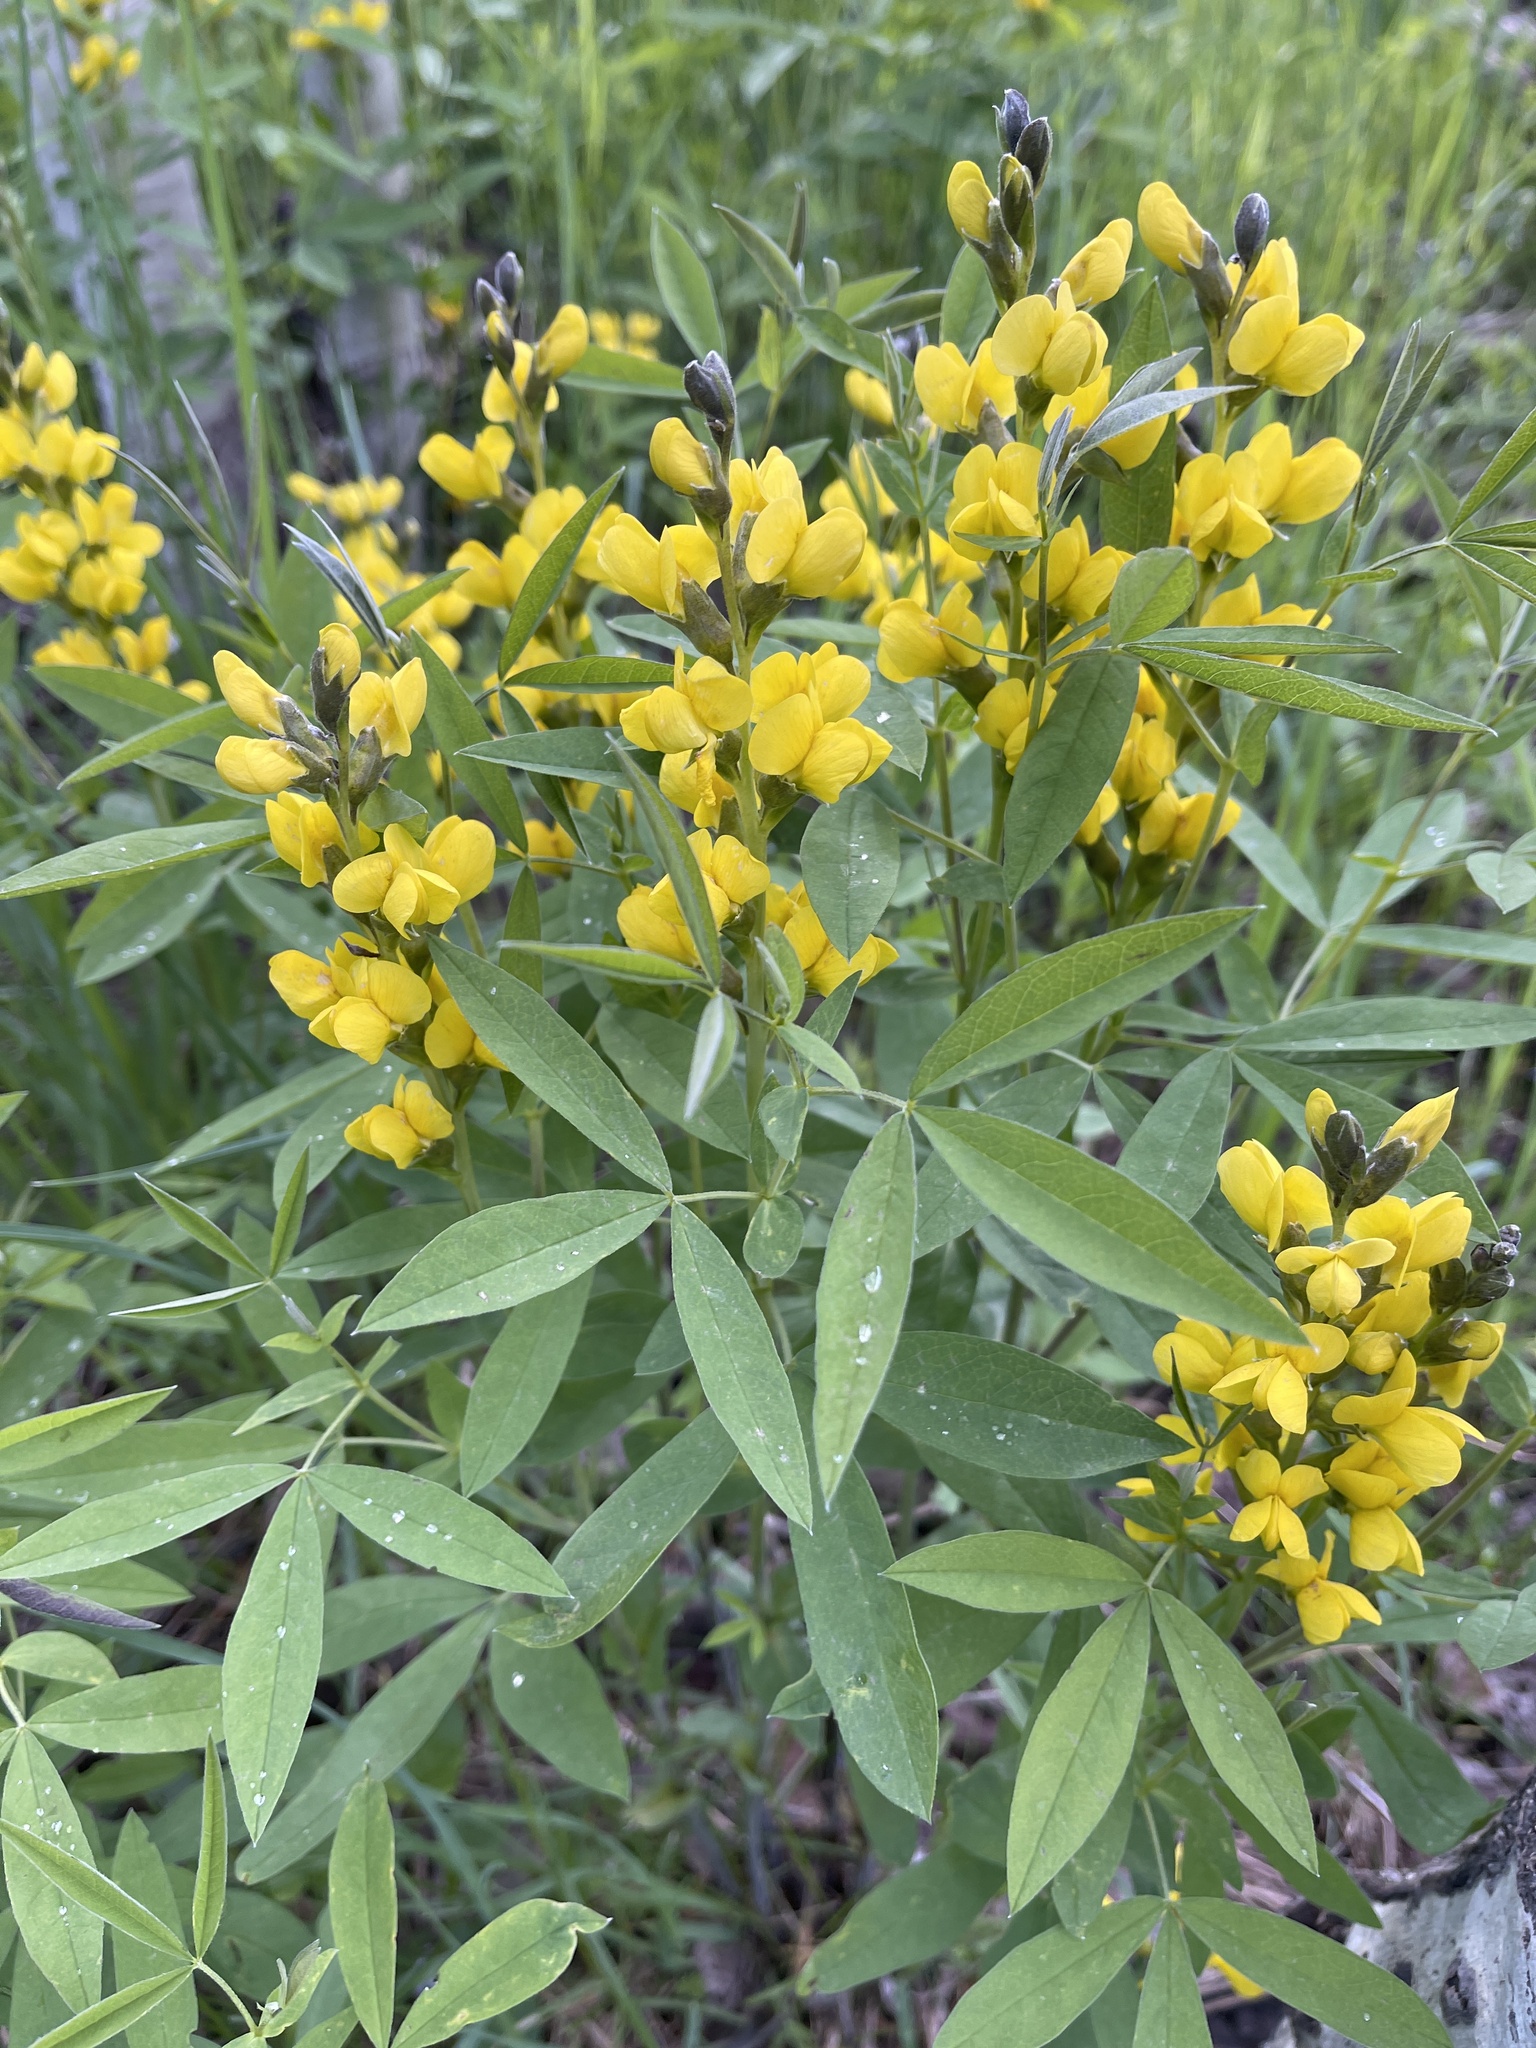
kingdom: Plantae
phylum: Tracheophyta
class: Magnoliopsida
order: Fabales
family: Fabaceae
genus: Thermopsis
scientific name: Thermopsis montana
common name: False lupin
